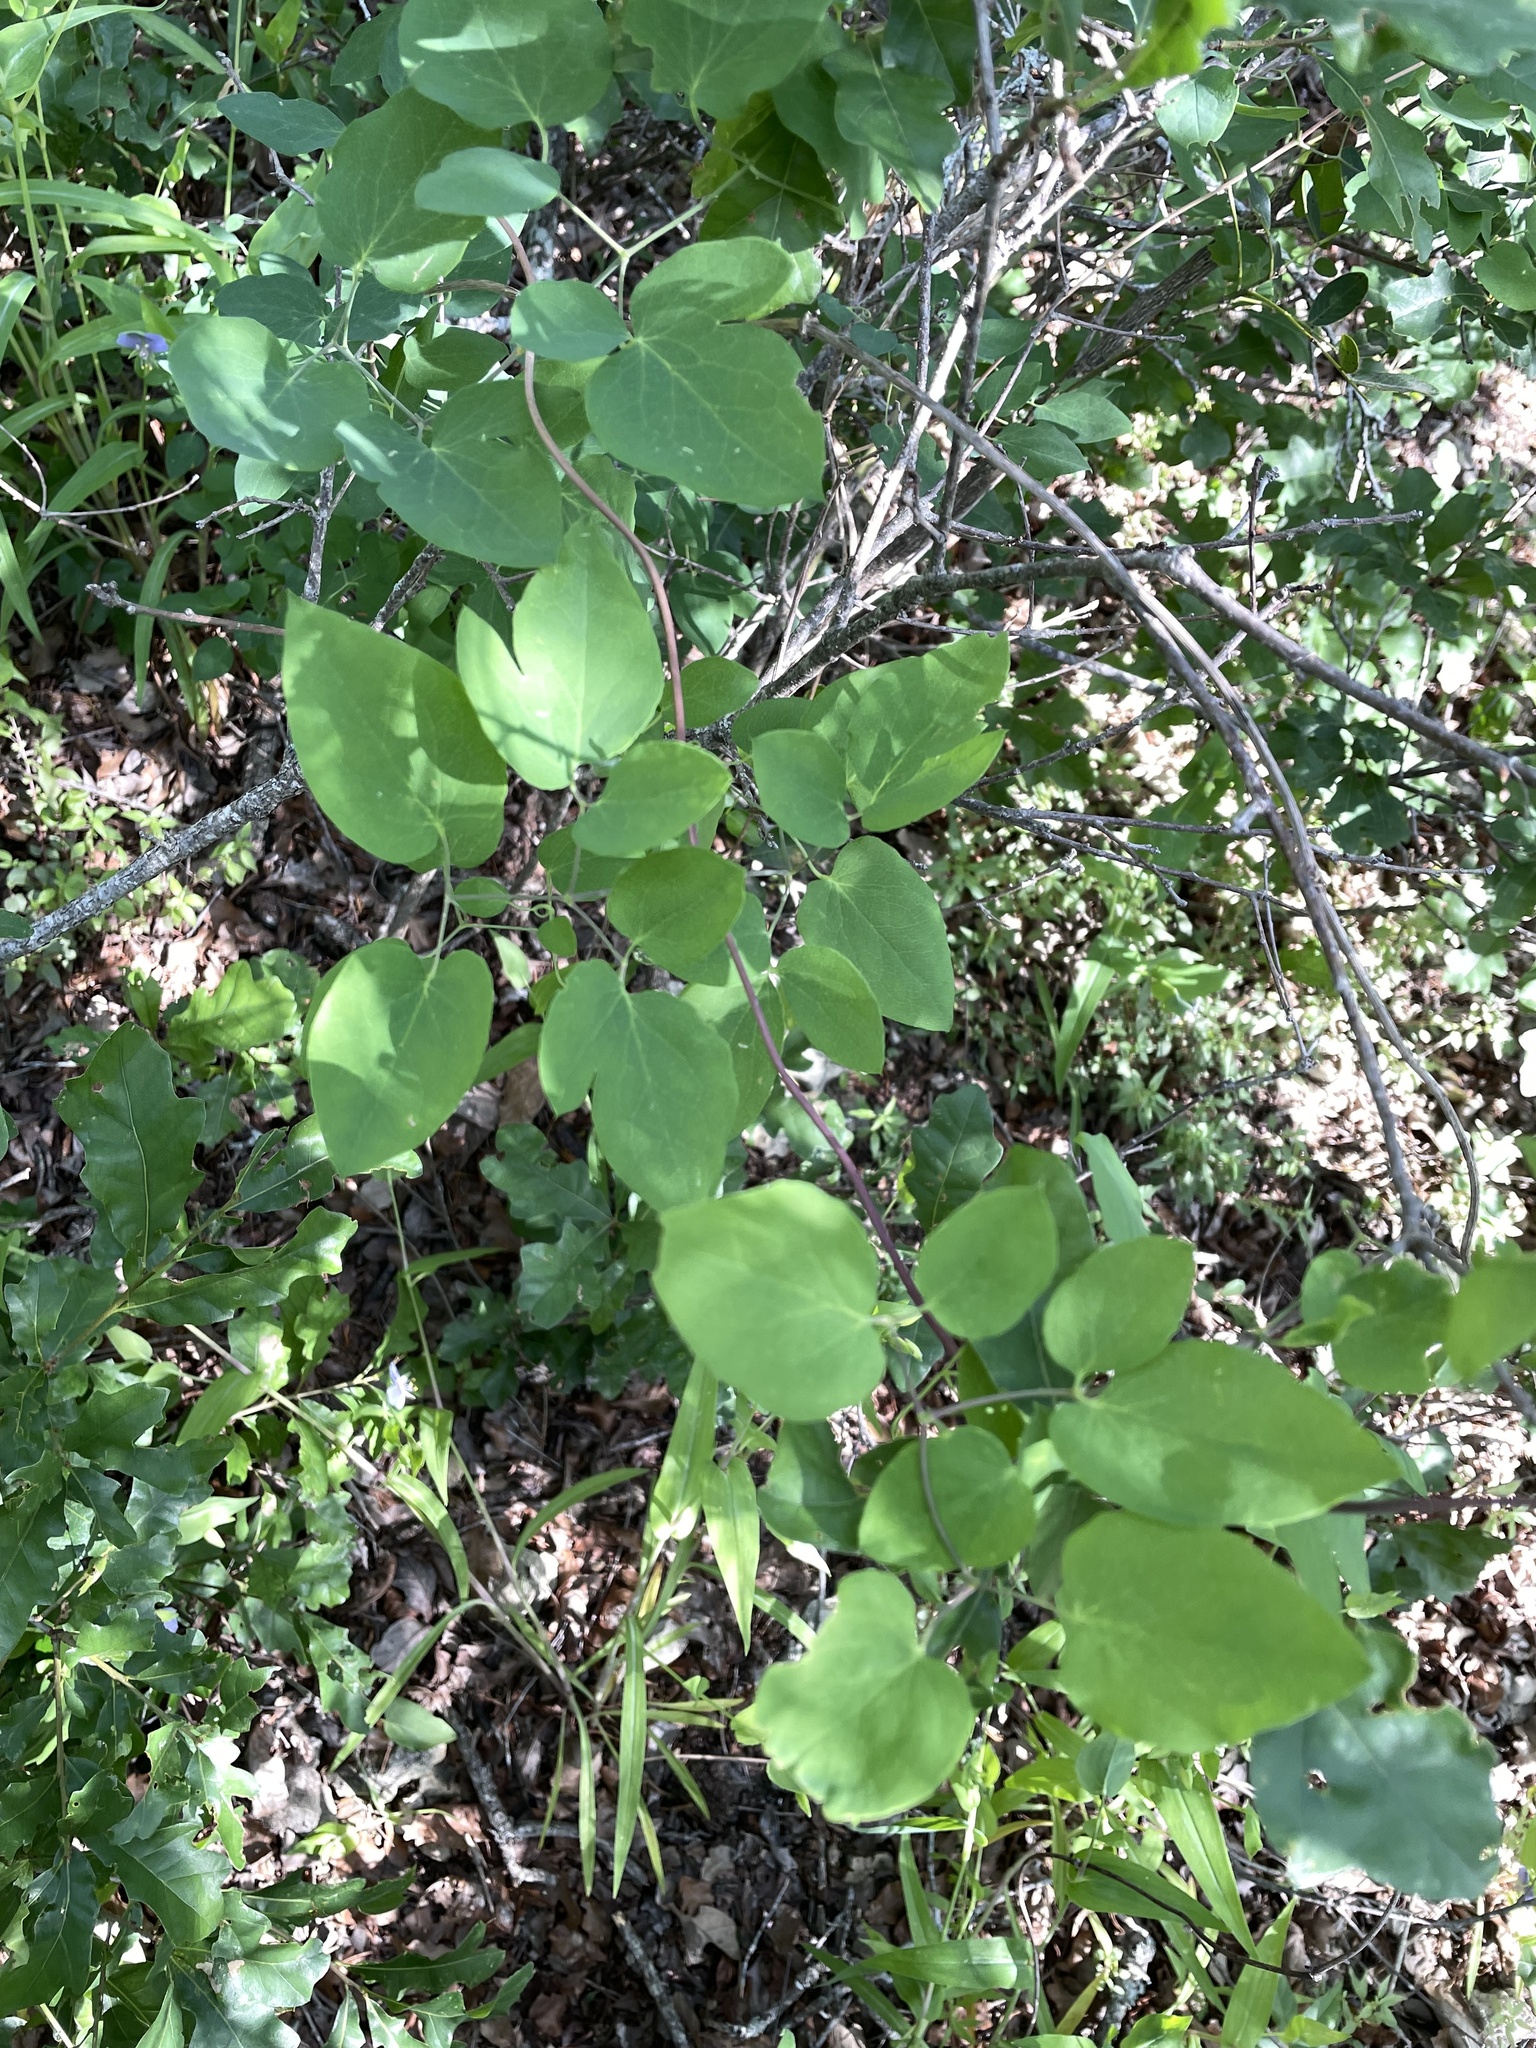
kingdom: Plantae
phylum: Tracheophyta
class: Magnoliopsida
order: Ranunculales
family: Ranunculaceae
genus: Clematis
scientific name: Clematis texensis
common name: Crimson clematis
